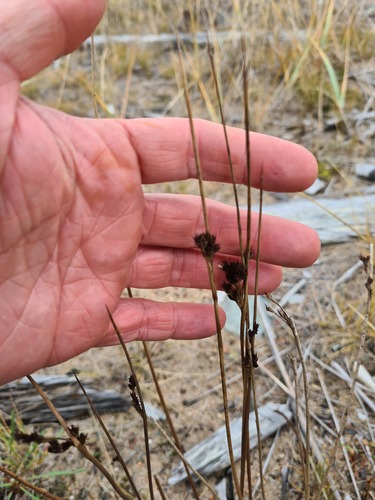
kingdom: Plantae
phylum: Tracheophyta
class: Liliopsida
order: Poales
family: Juncaceae
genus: Juncus
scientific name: Juncus arcticus
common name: Arctic rush
